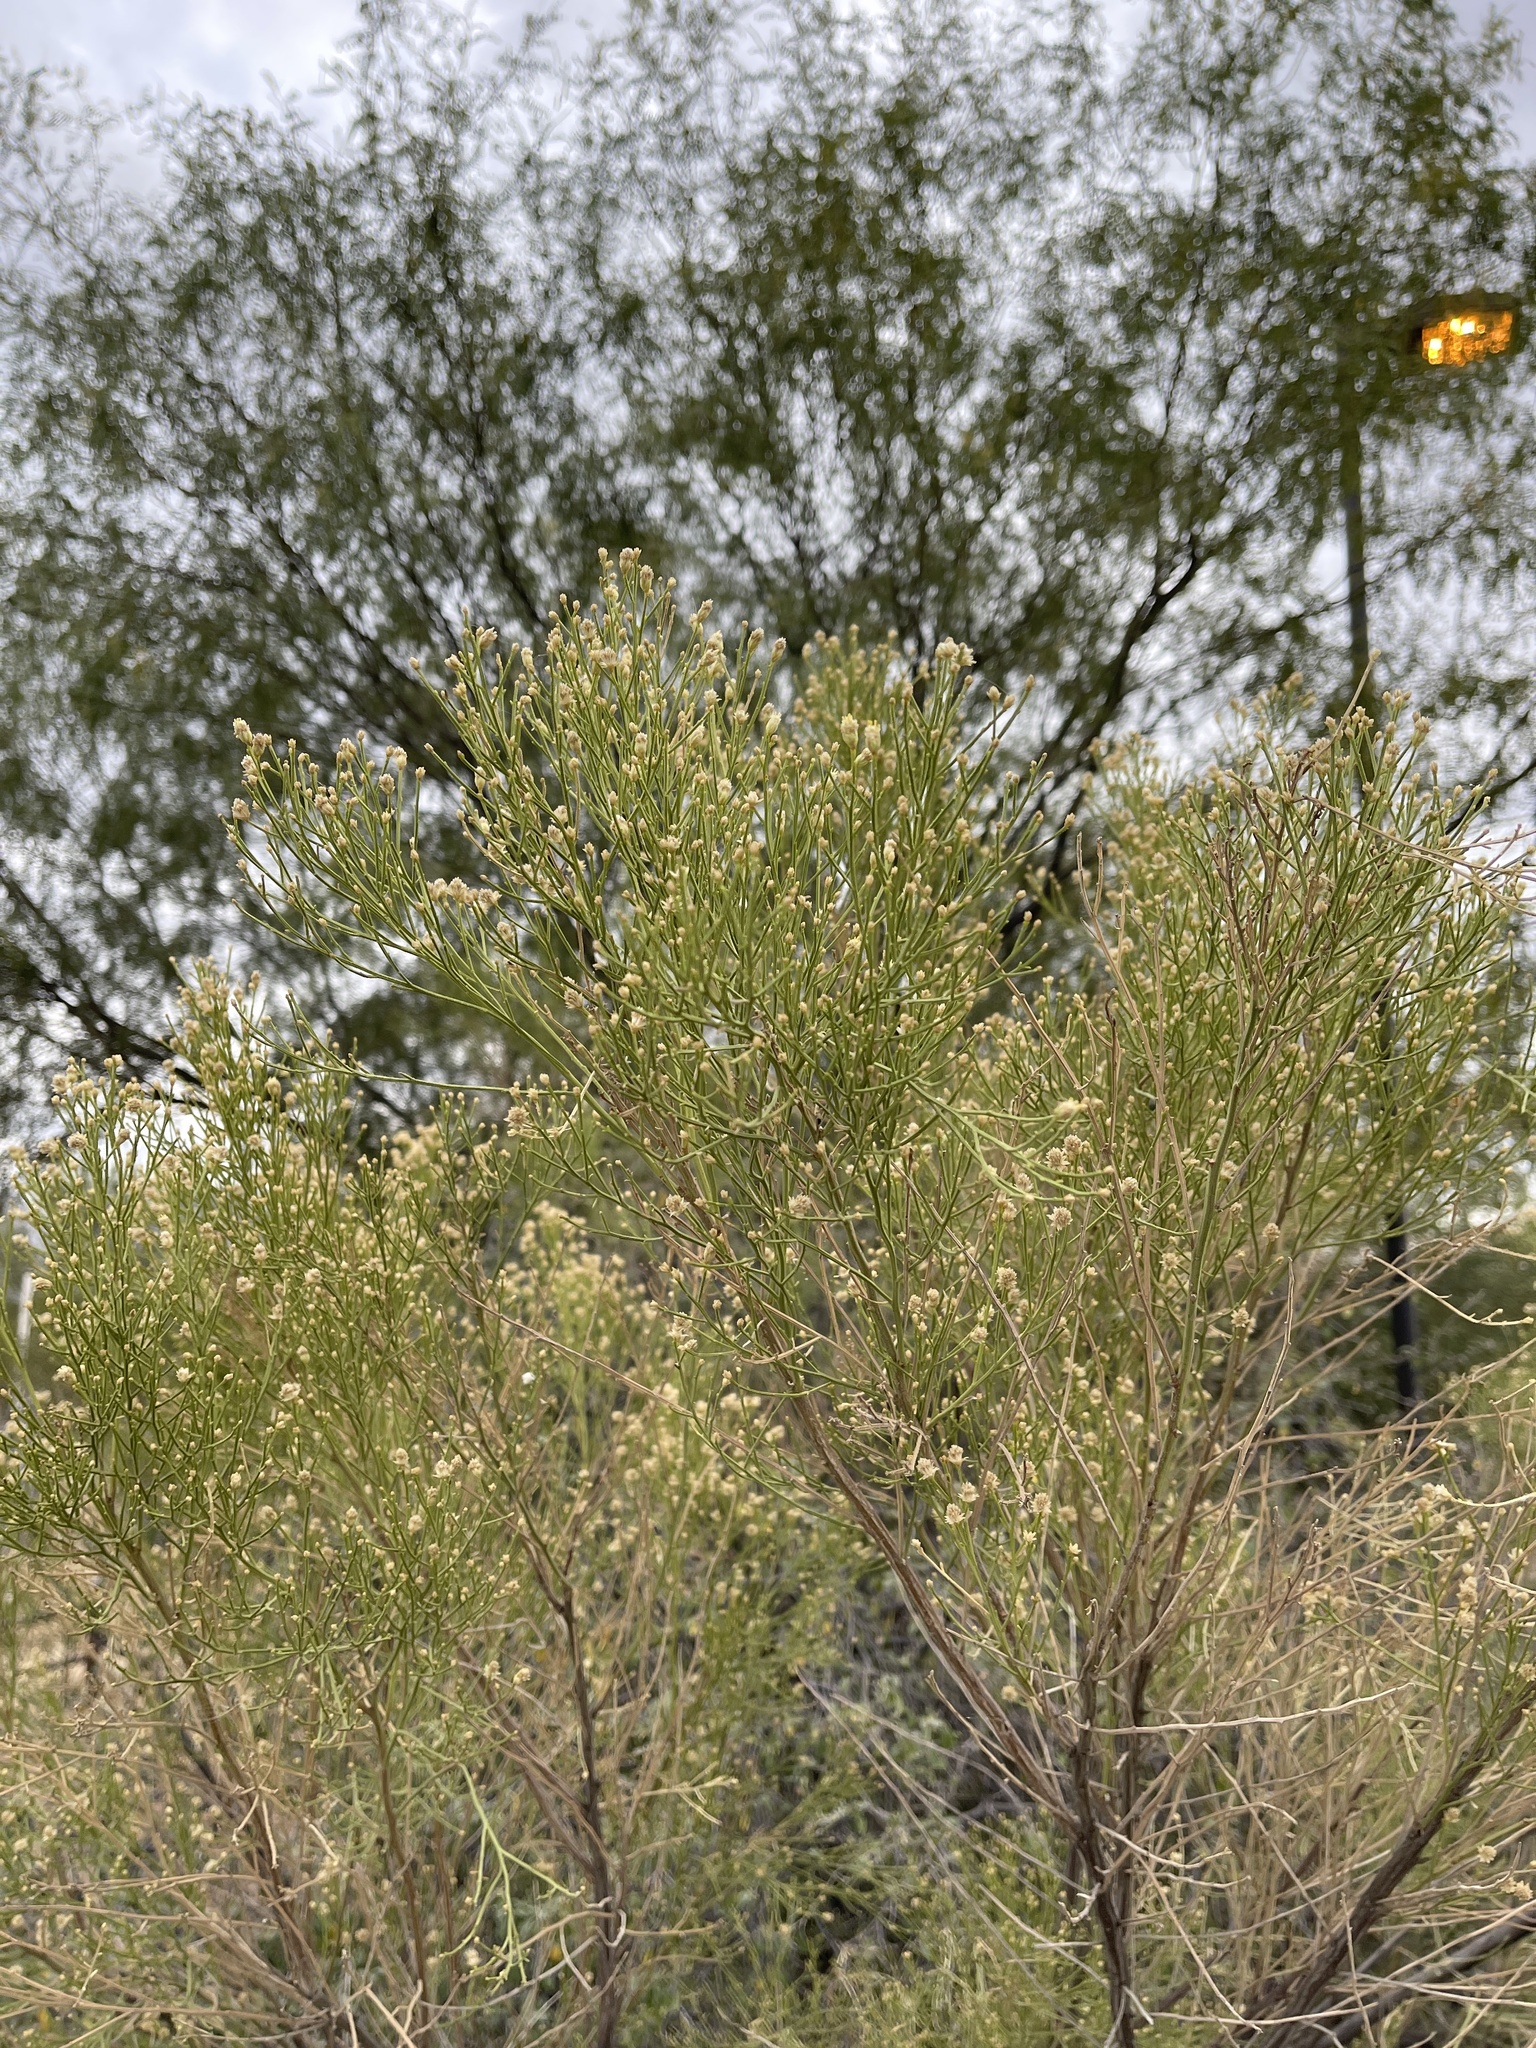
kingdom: Plantae
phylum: Tracheophyta
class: Magnoliopsida
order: Asterales
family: Asteraceae
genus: Baccharis
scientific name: Baccharis sarothroides
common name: Desert-broom
